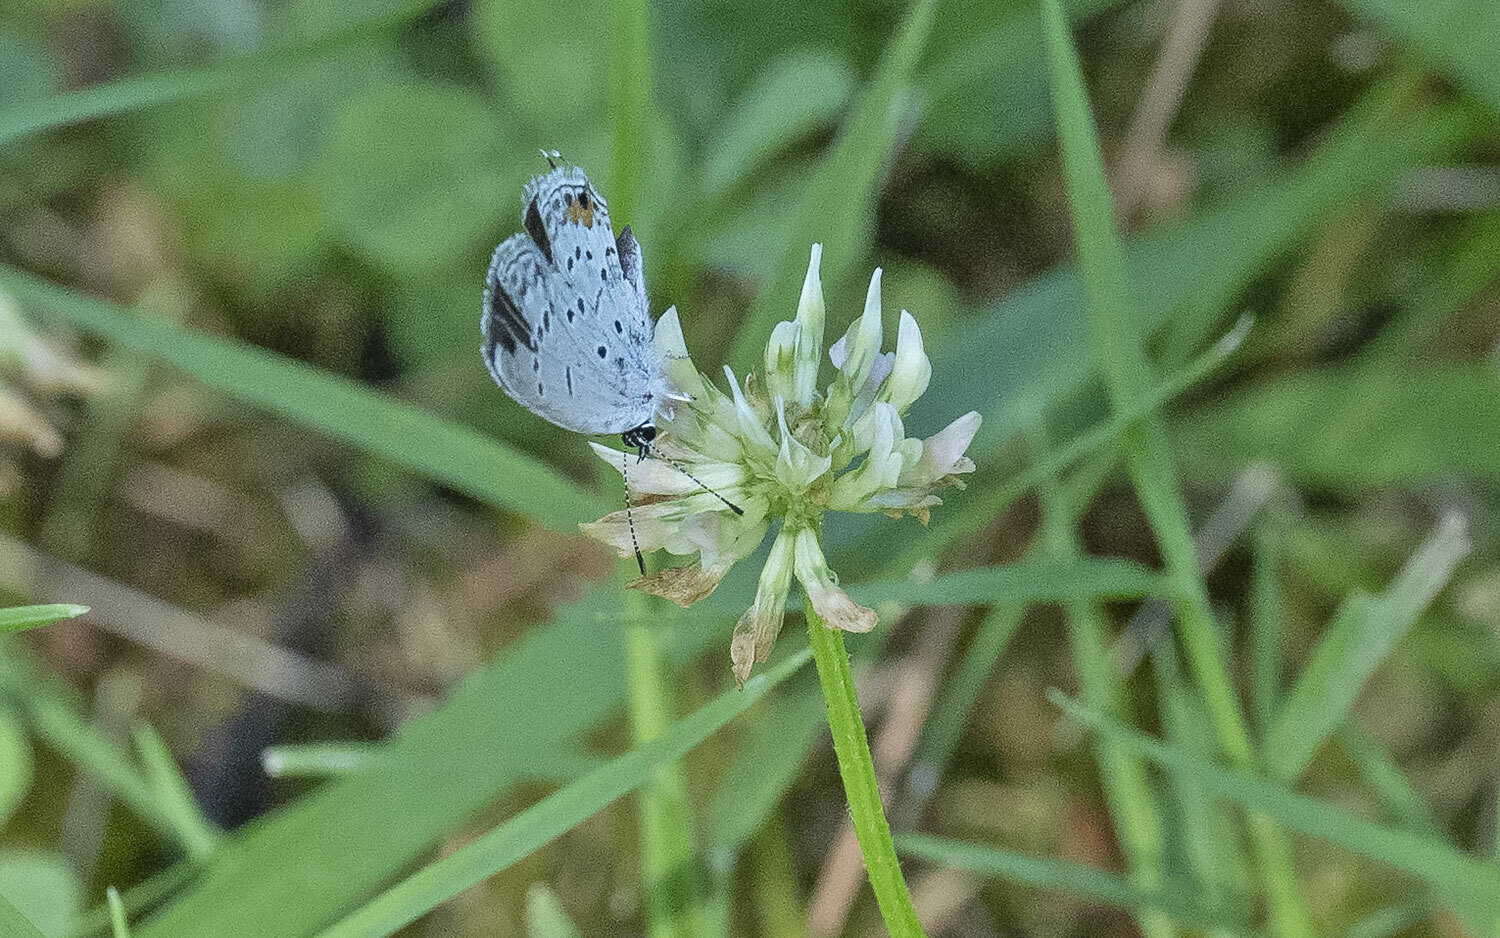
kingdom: Animalia
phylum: Arthropoda
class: Insecta
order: Lepidoptera
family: Lycaenidae
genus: Elkalyce
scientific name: Elkalyce comyntas
